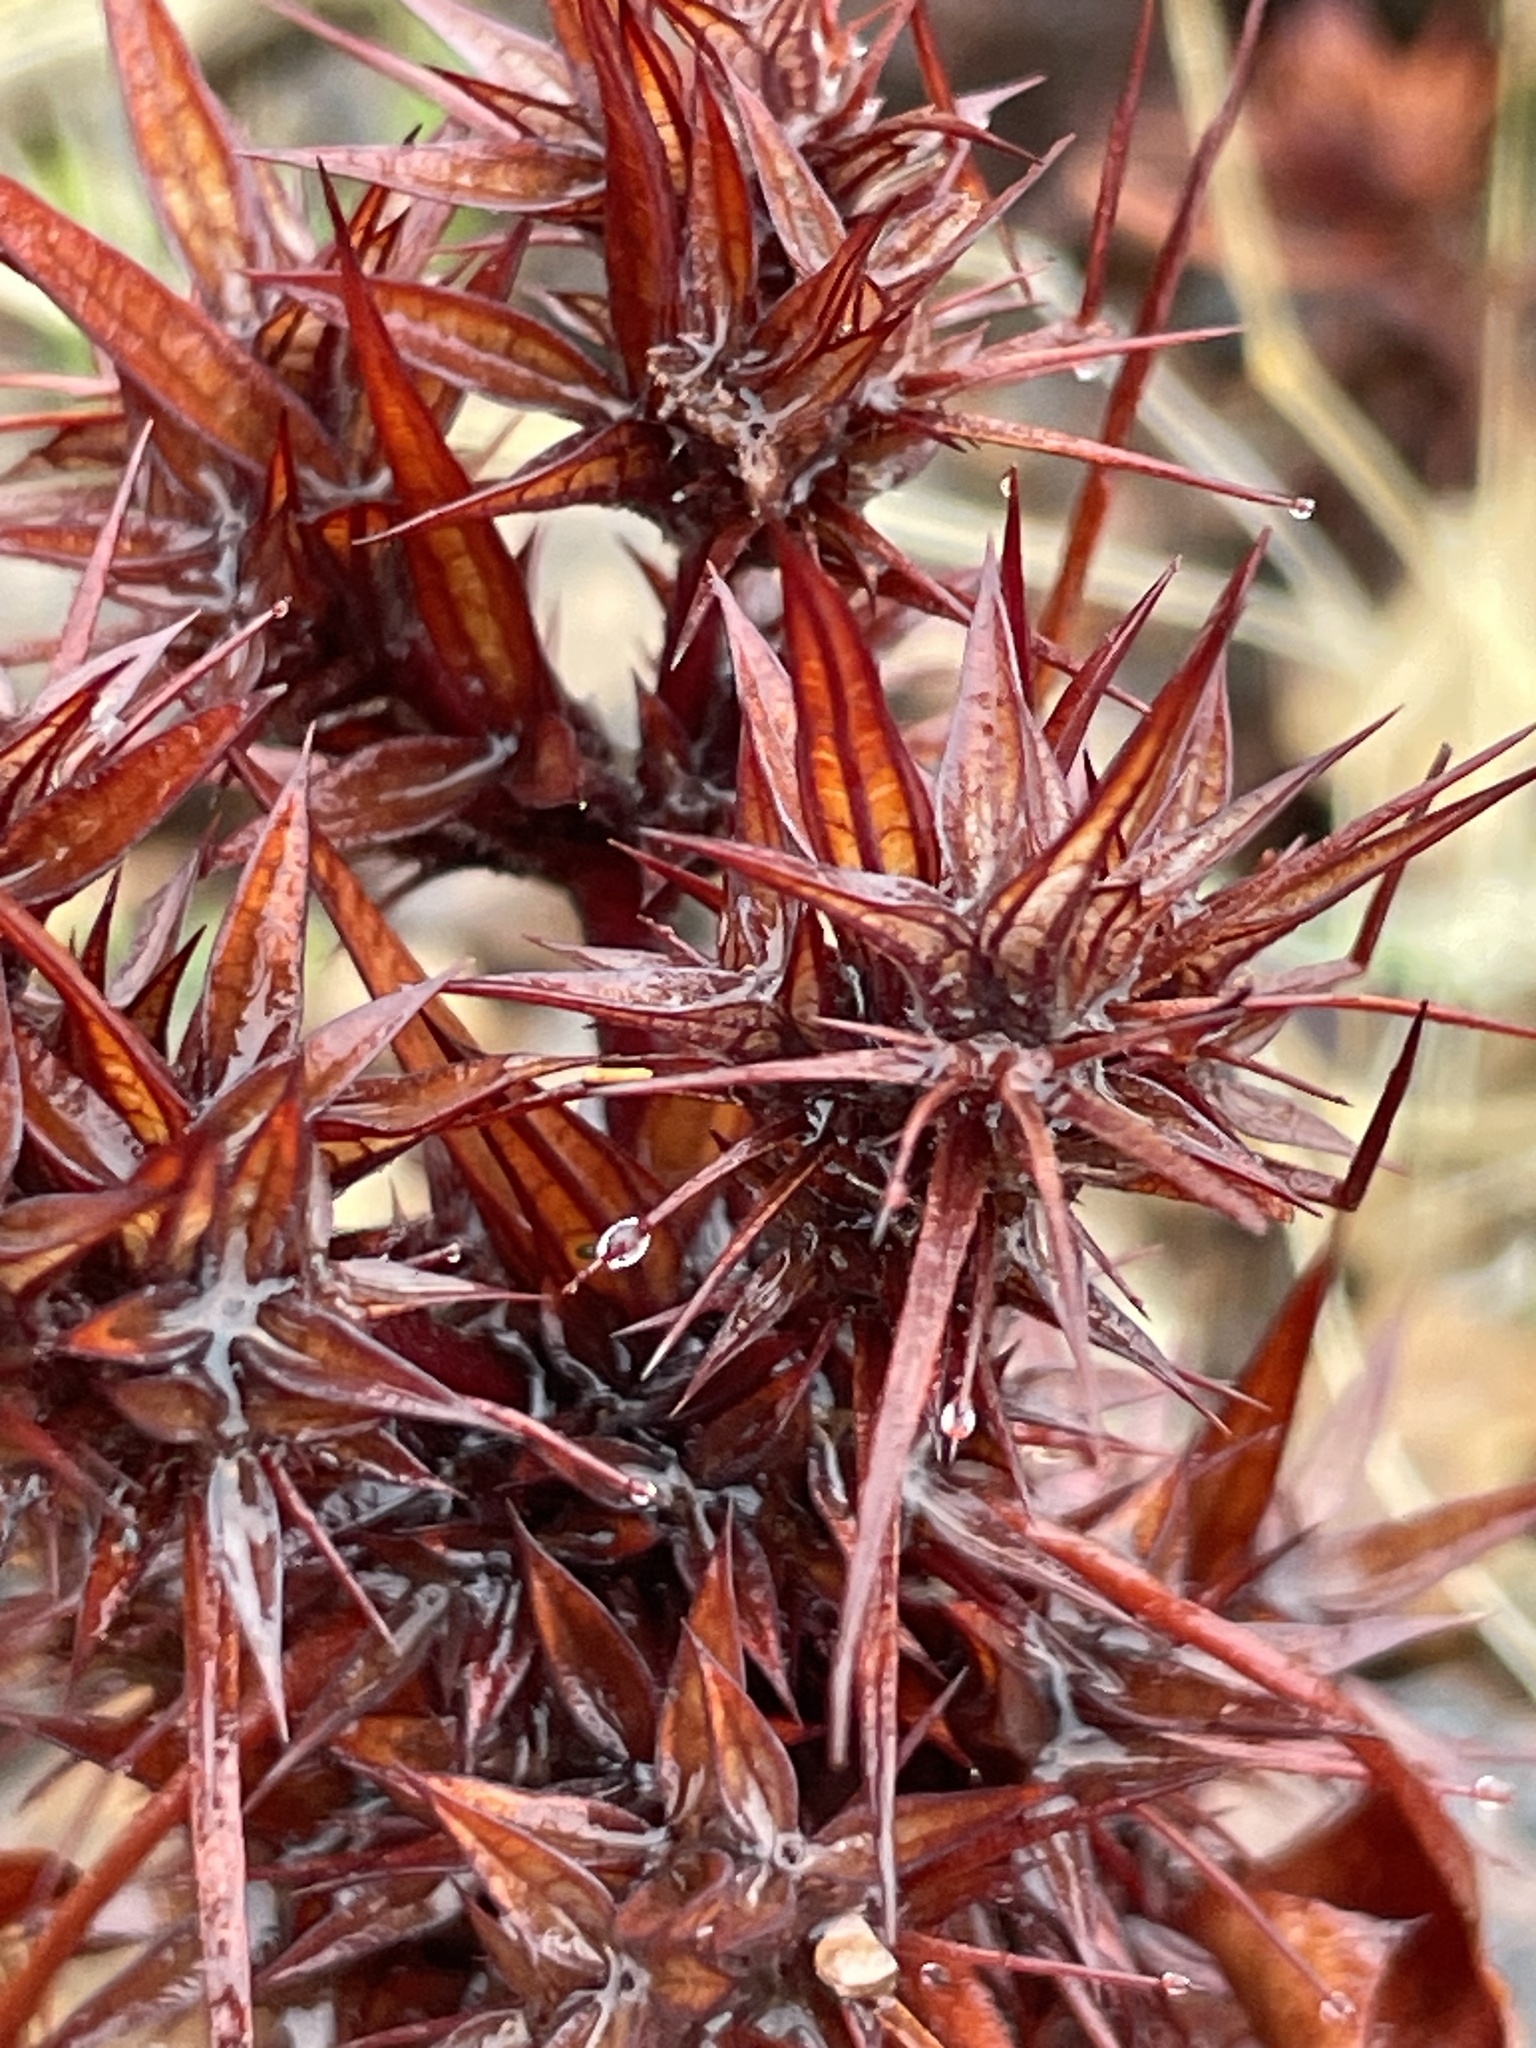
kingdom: Plantae
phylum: Tracheophyta
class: Magnoliopsida
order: Caryophyllales
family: Polygonaceae
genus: Chorizanthe
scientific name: Chorizanthe rigida
